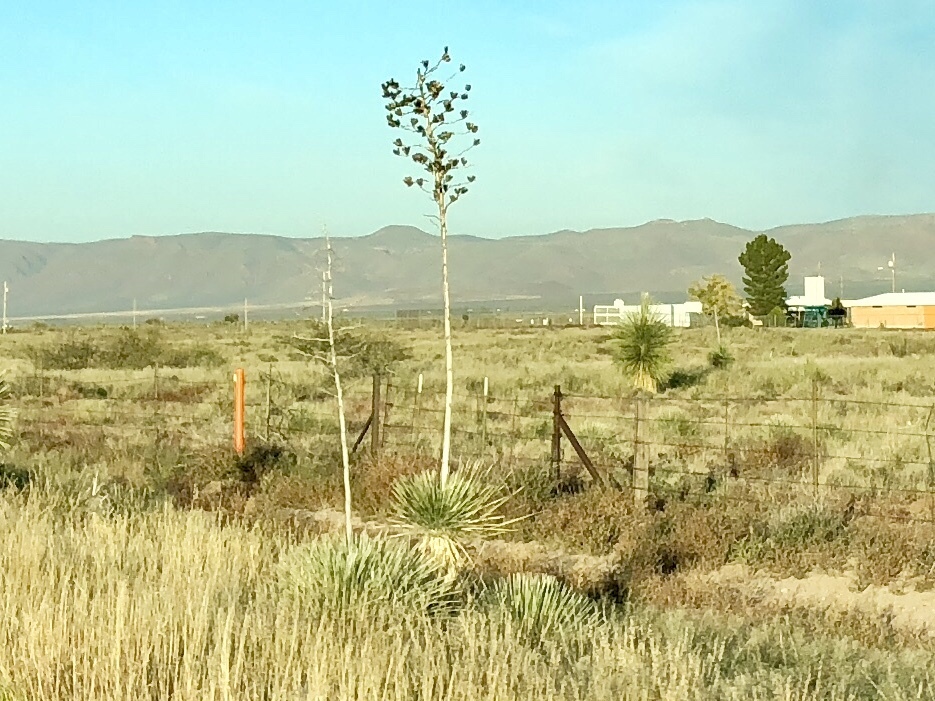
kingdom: Plantae
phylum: Tracheophyta
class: Liliopsida
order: Asparagales
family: Asparagaceae
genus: Yucca
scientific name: Yucca elata
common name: Palmella
